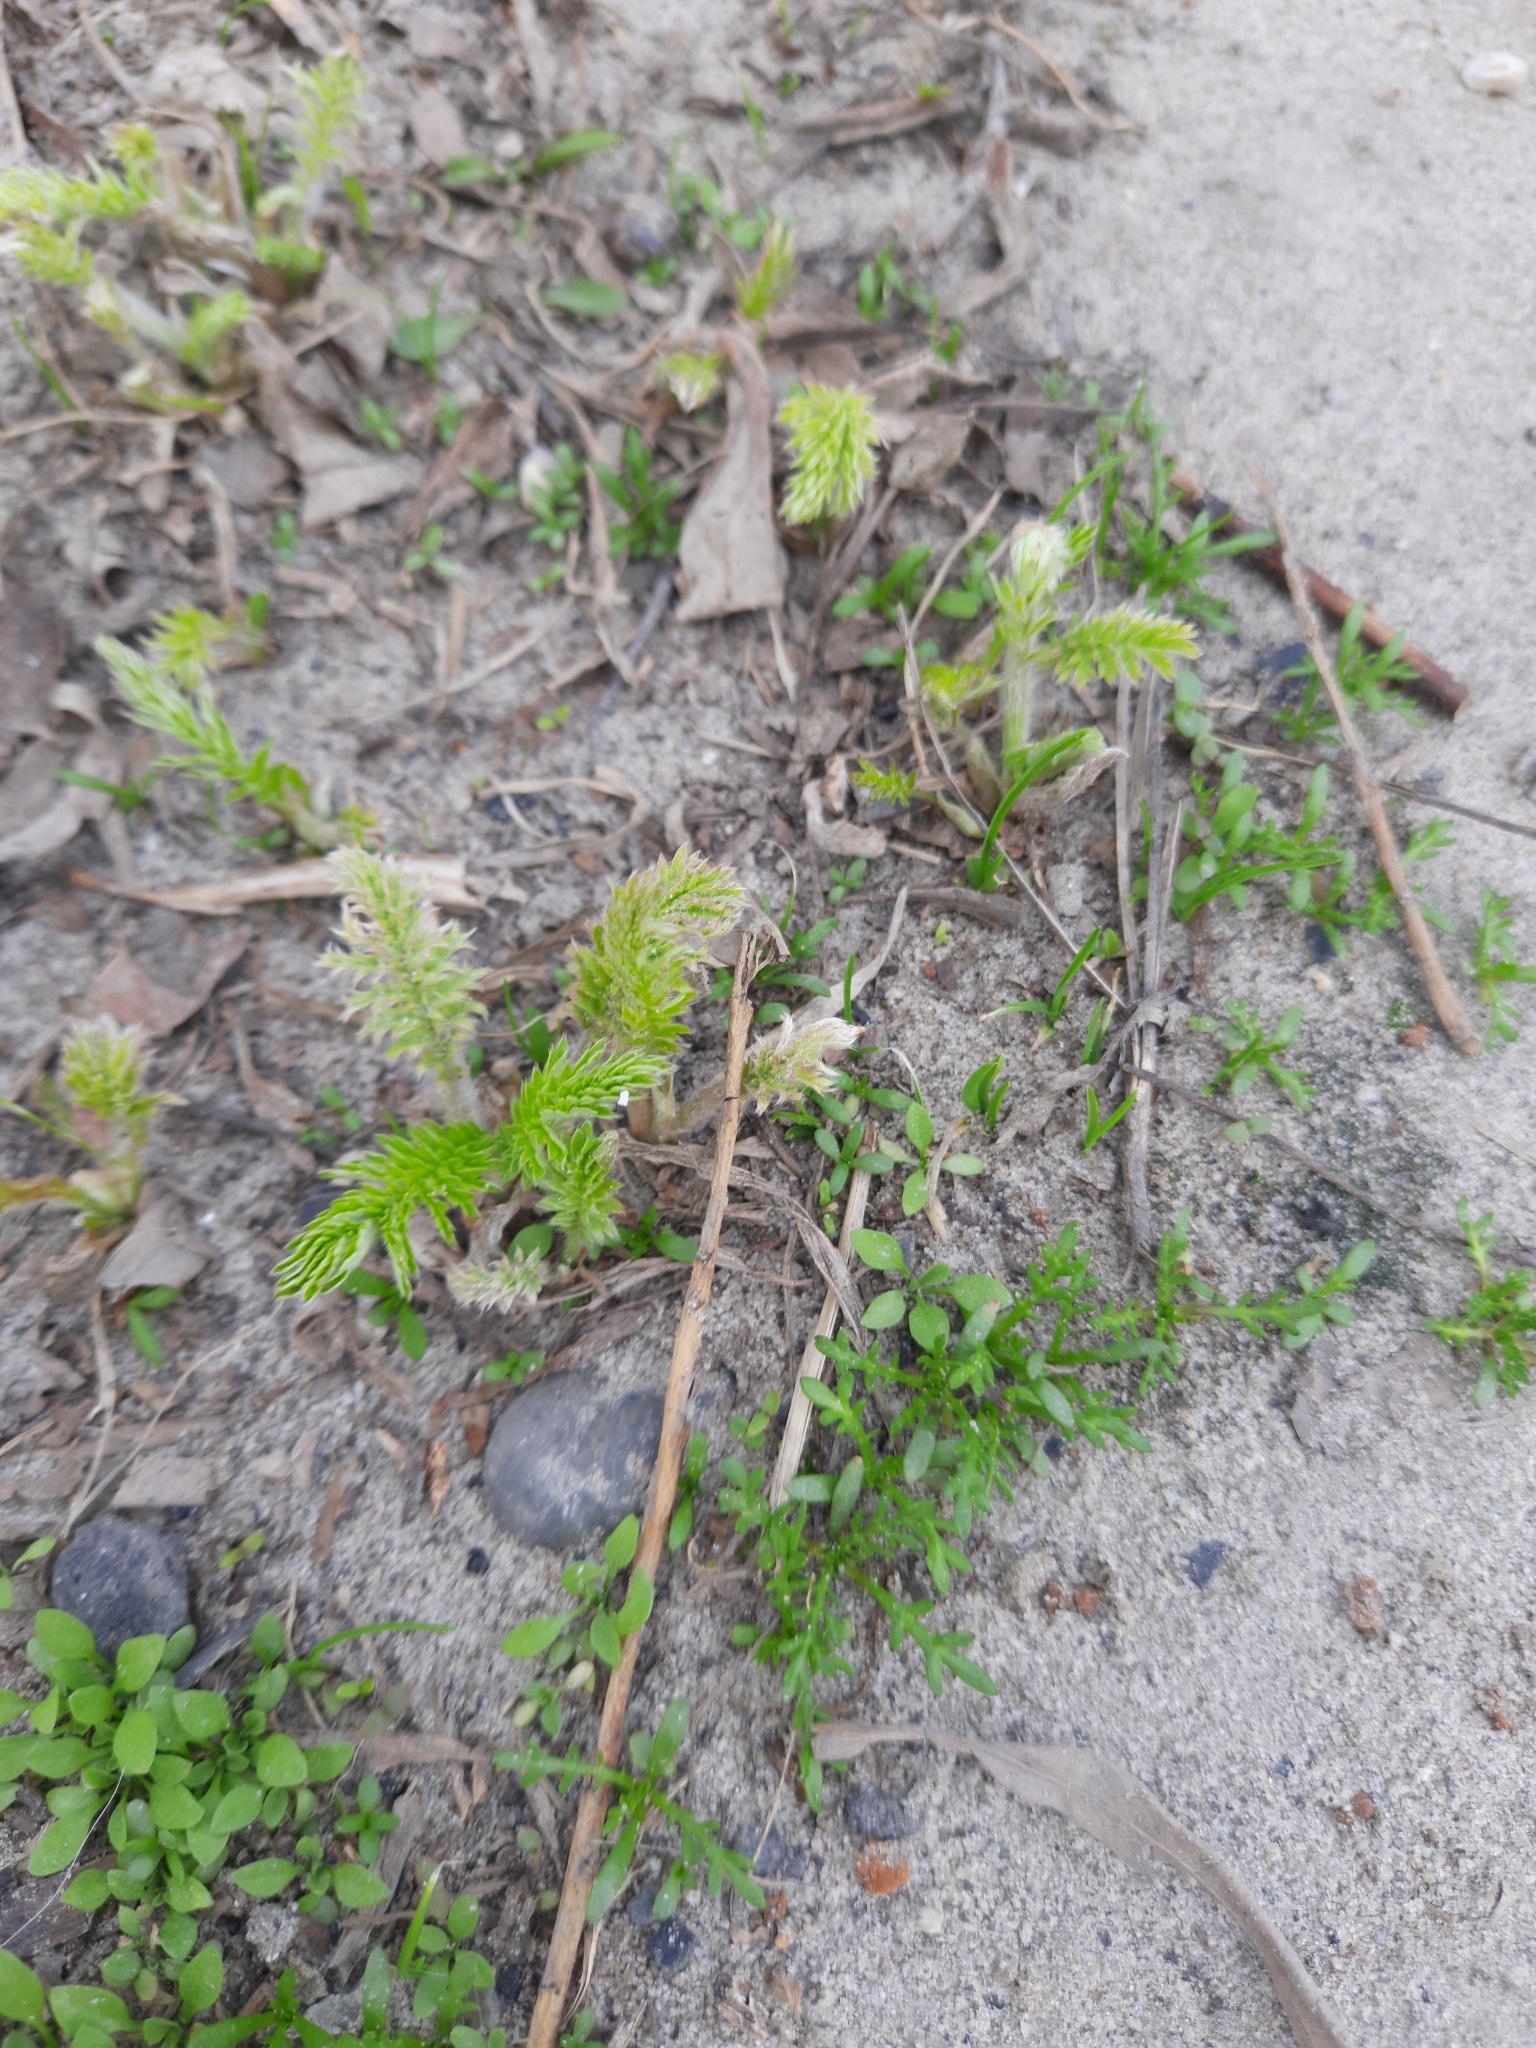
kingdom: Plantae
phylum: Tracheophyta
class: Magnoliopsida
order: Rosales
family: Rosaceae
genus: Argentina
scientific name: Argentina anserina
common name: Common silverweed
